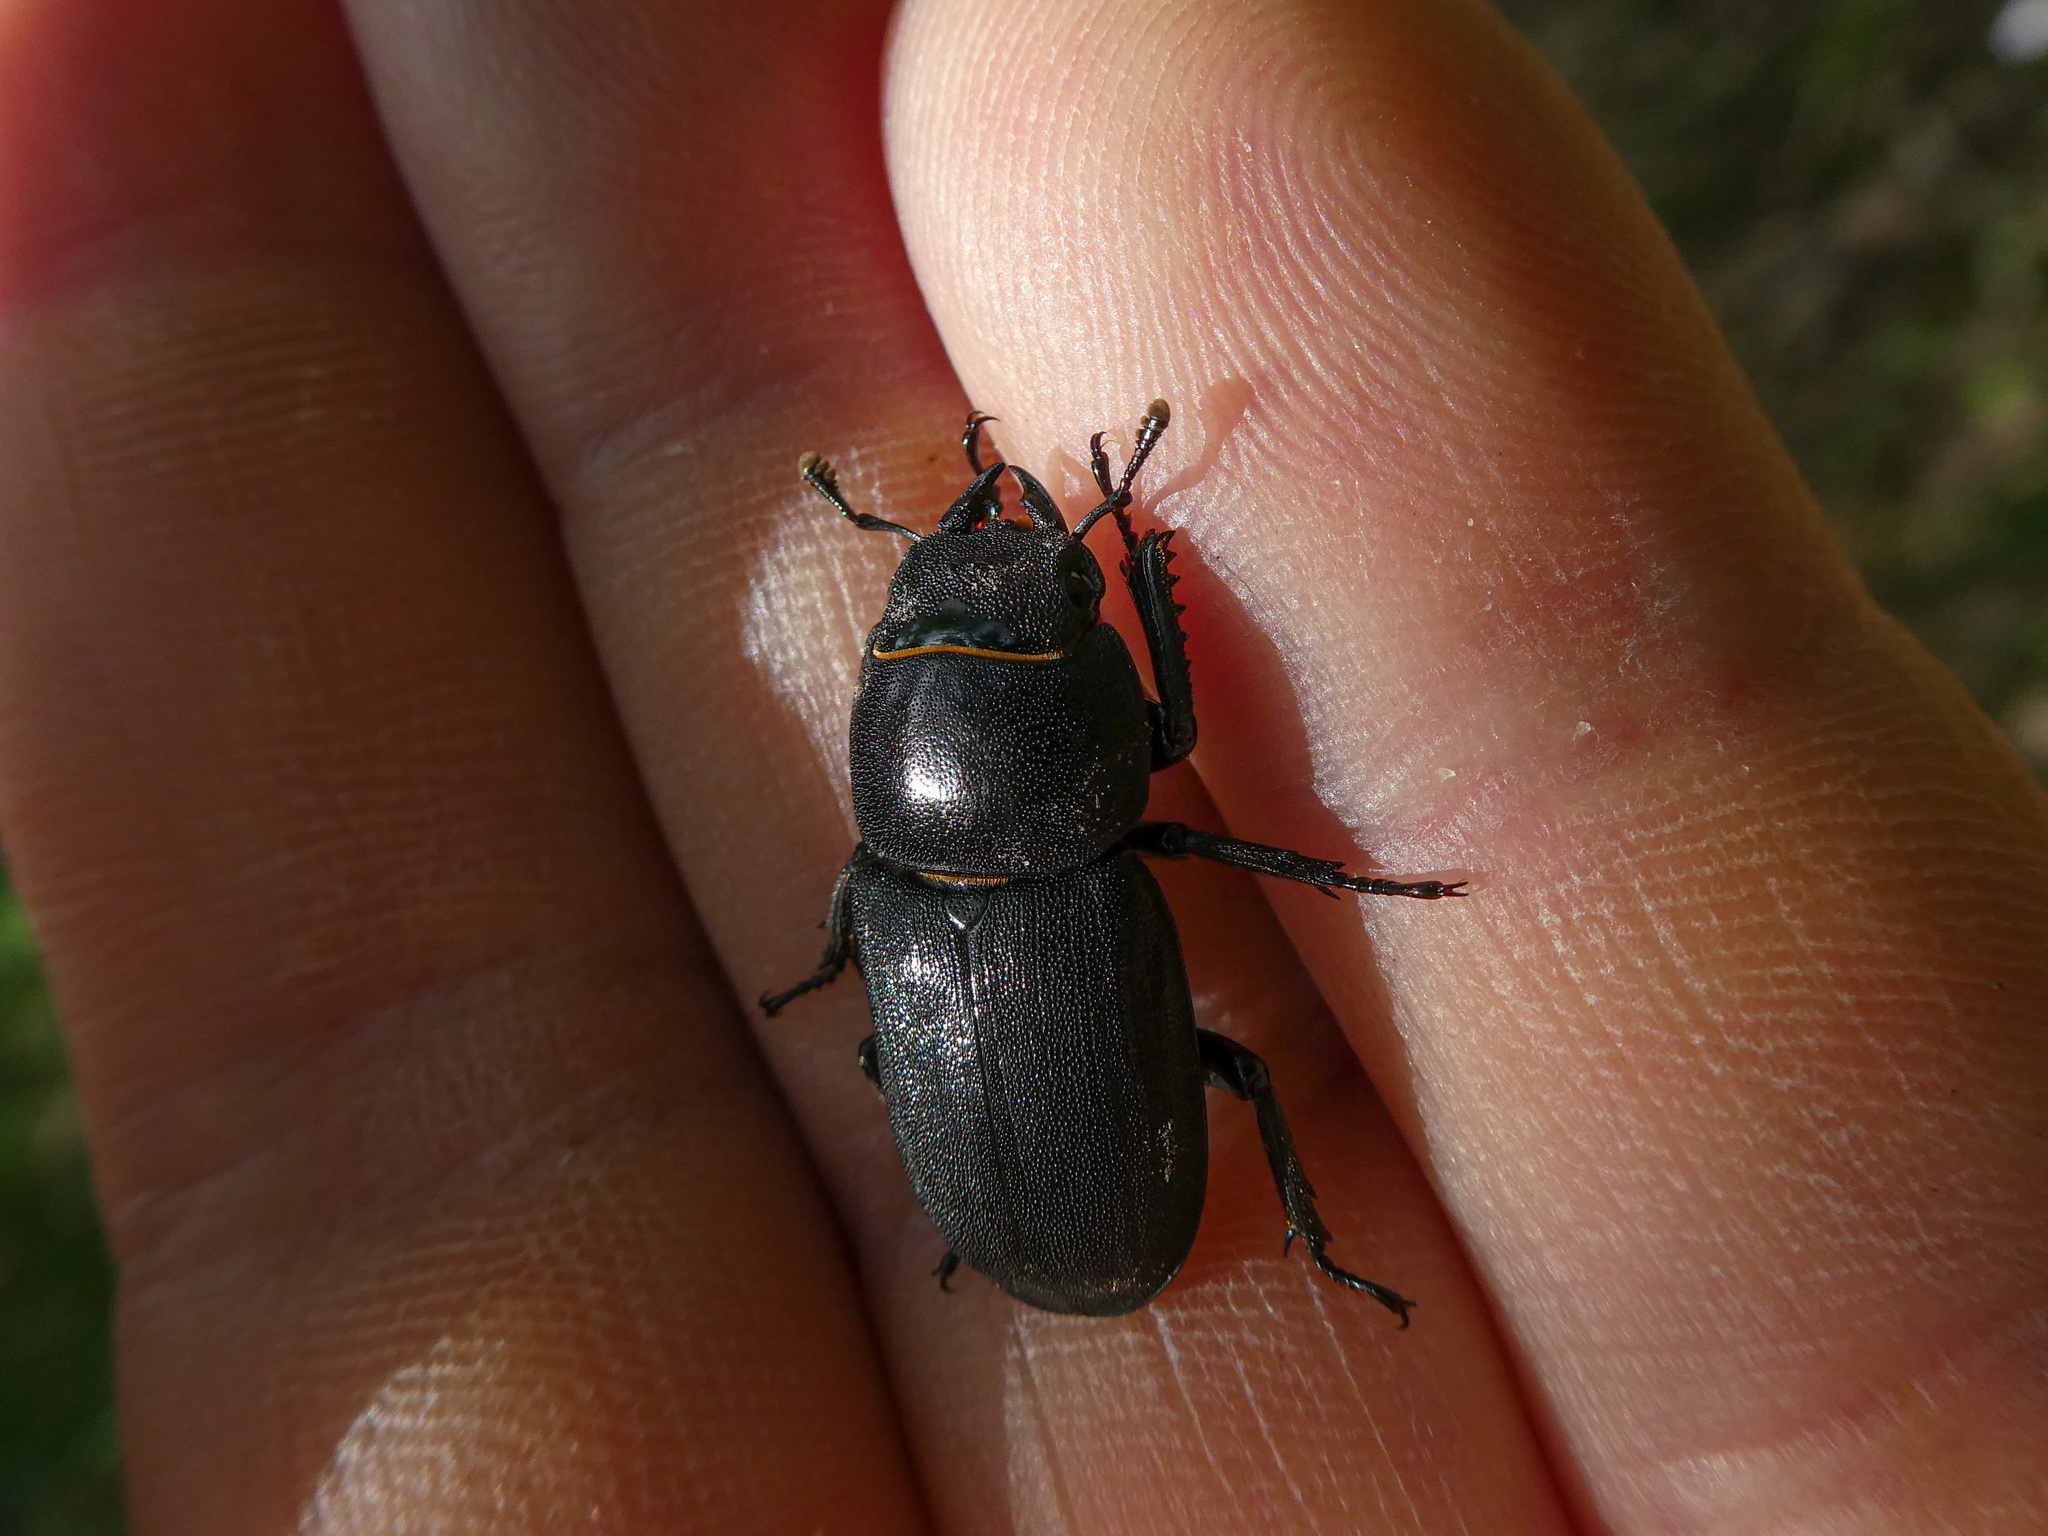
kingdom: Animalia
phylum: Arthropoda
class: Insecta
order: Coleoptera
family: Lucanidae
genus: Dorcus
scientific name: Dorcus parallelipipedus
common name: Lesser stag beetle
